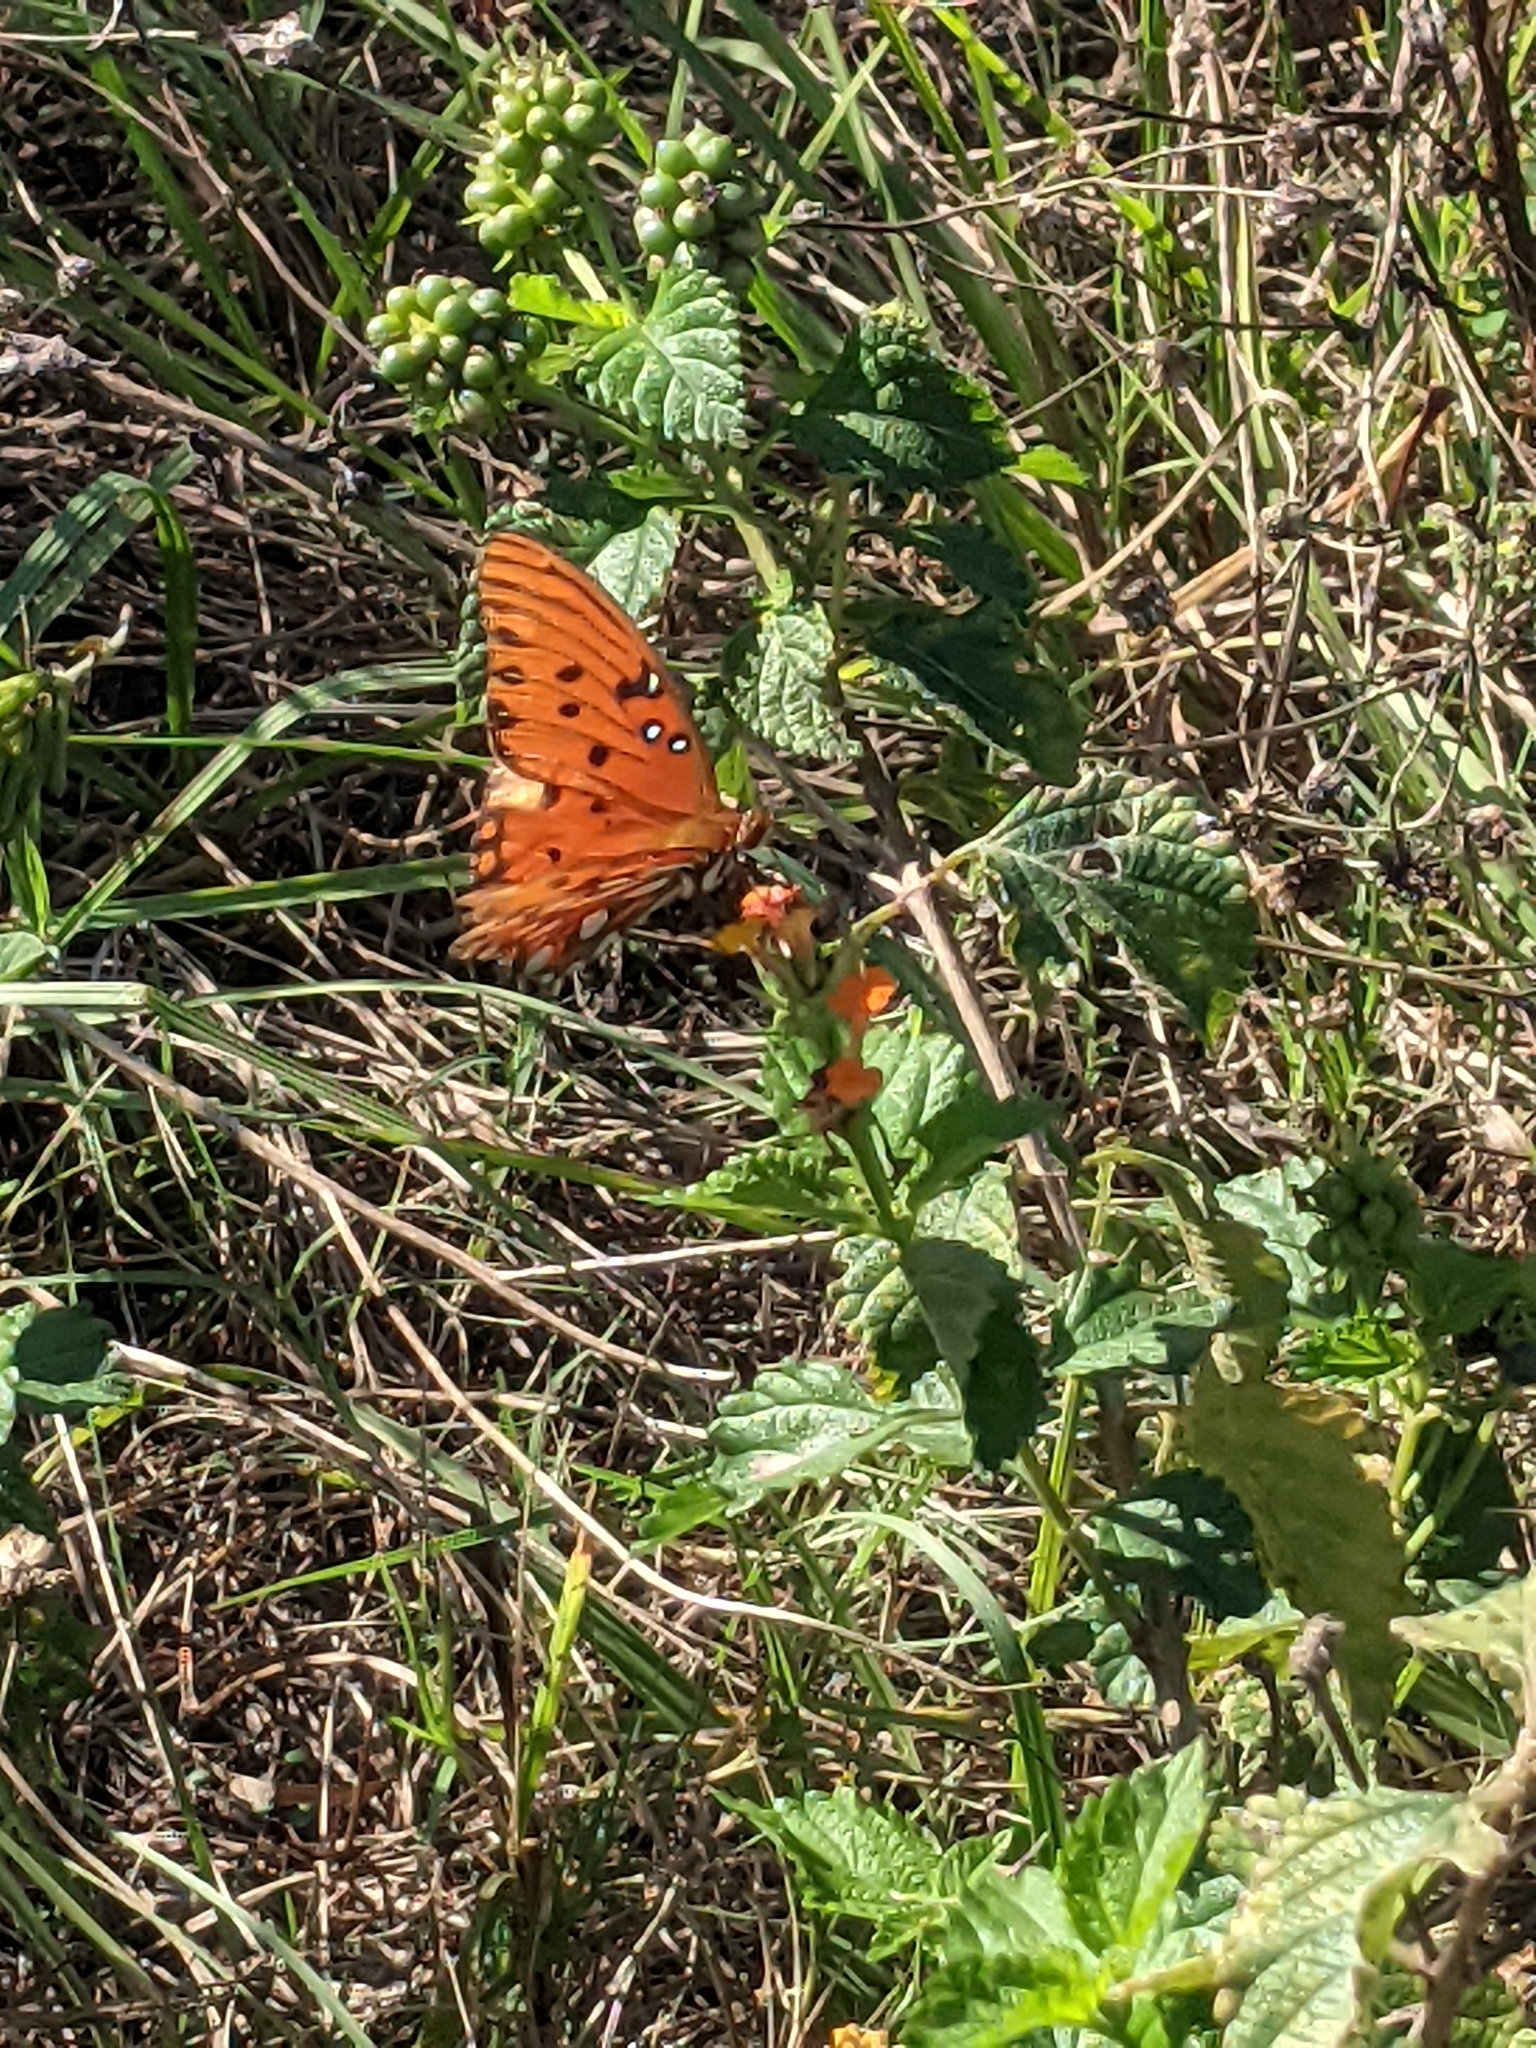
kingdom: Animalia
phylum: Arthropoda
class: Insecta
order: Lepidoptera
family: Nymphalidae
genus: Dione
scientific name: Dione vanillae
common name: Gulf fritillary
